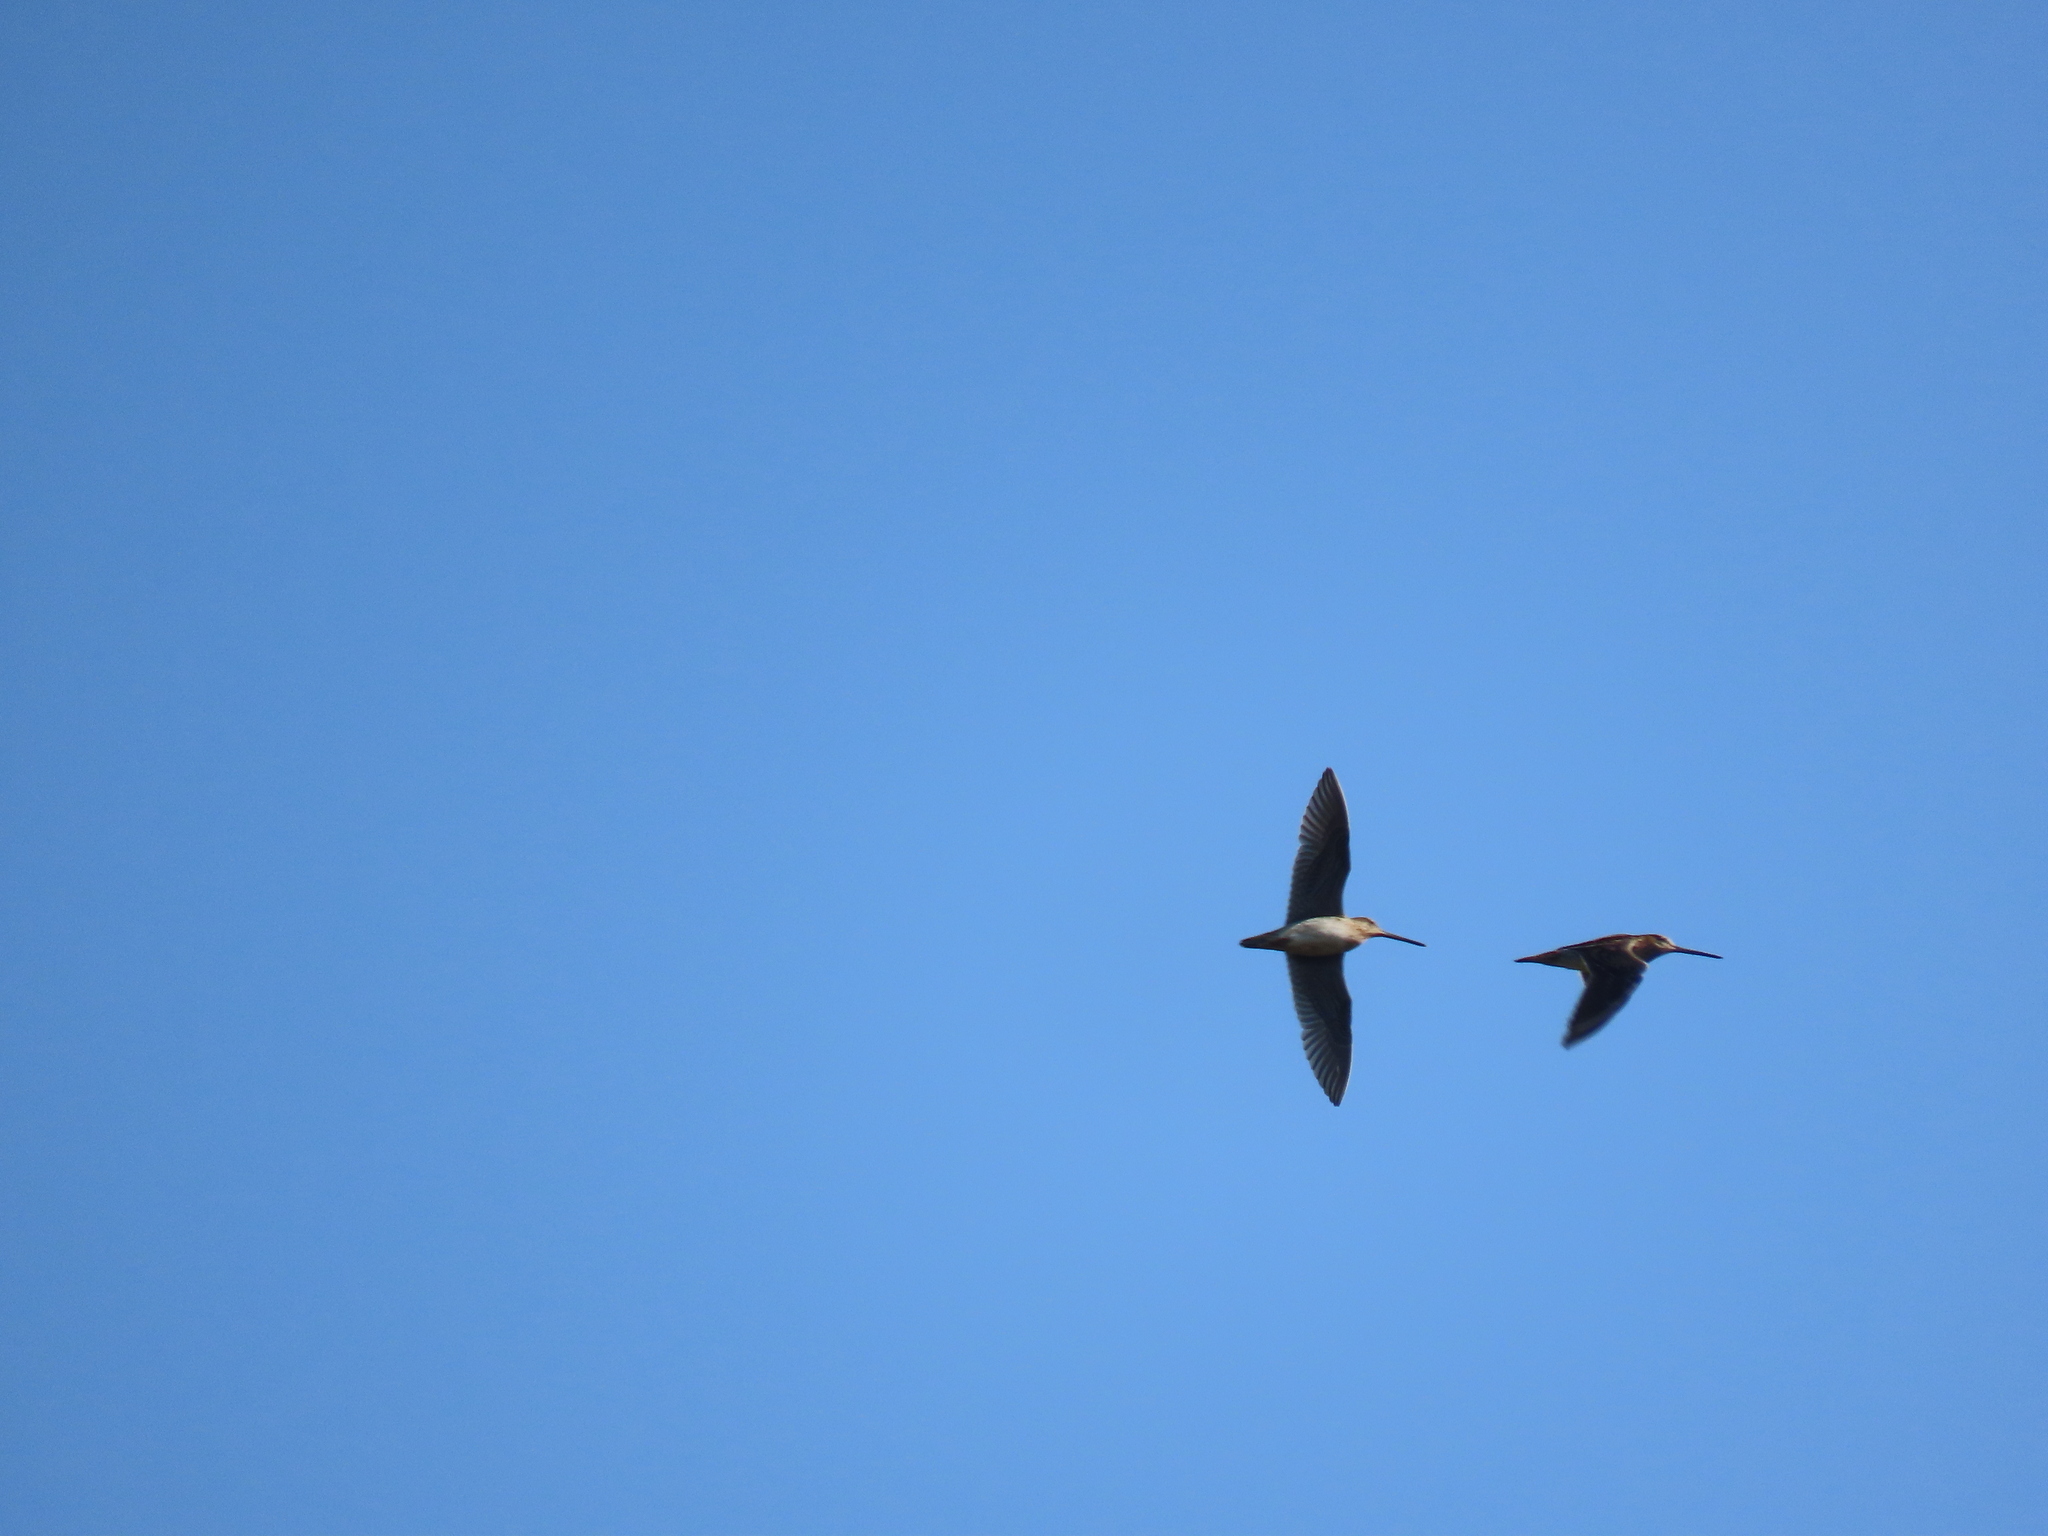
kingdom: Animalia
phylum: Chordata
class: Aves
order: Charadriiformes
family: Scolopacidae
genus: Gallinago
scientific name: Gallinago delicata
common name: Wilson's snipe
